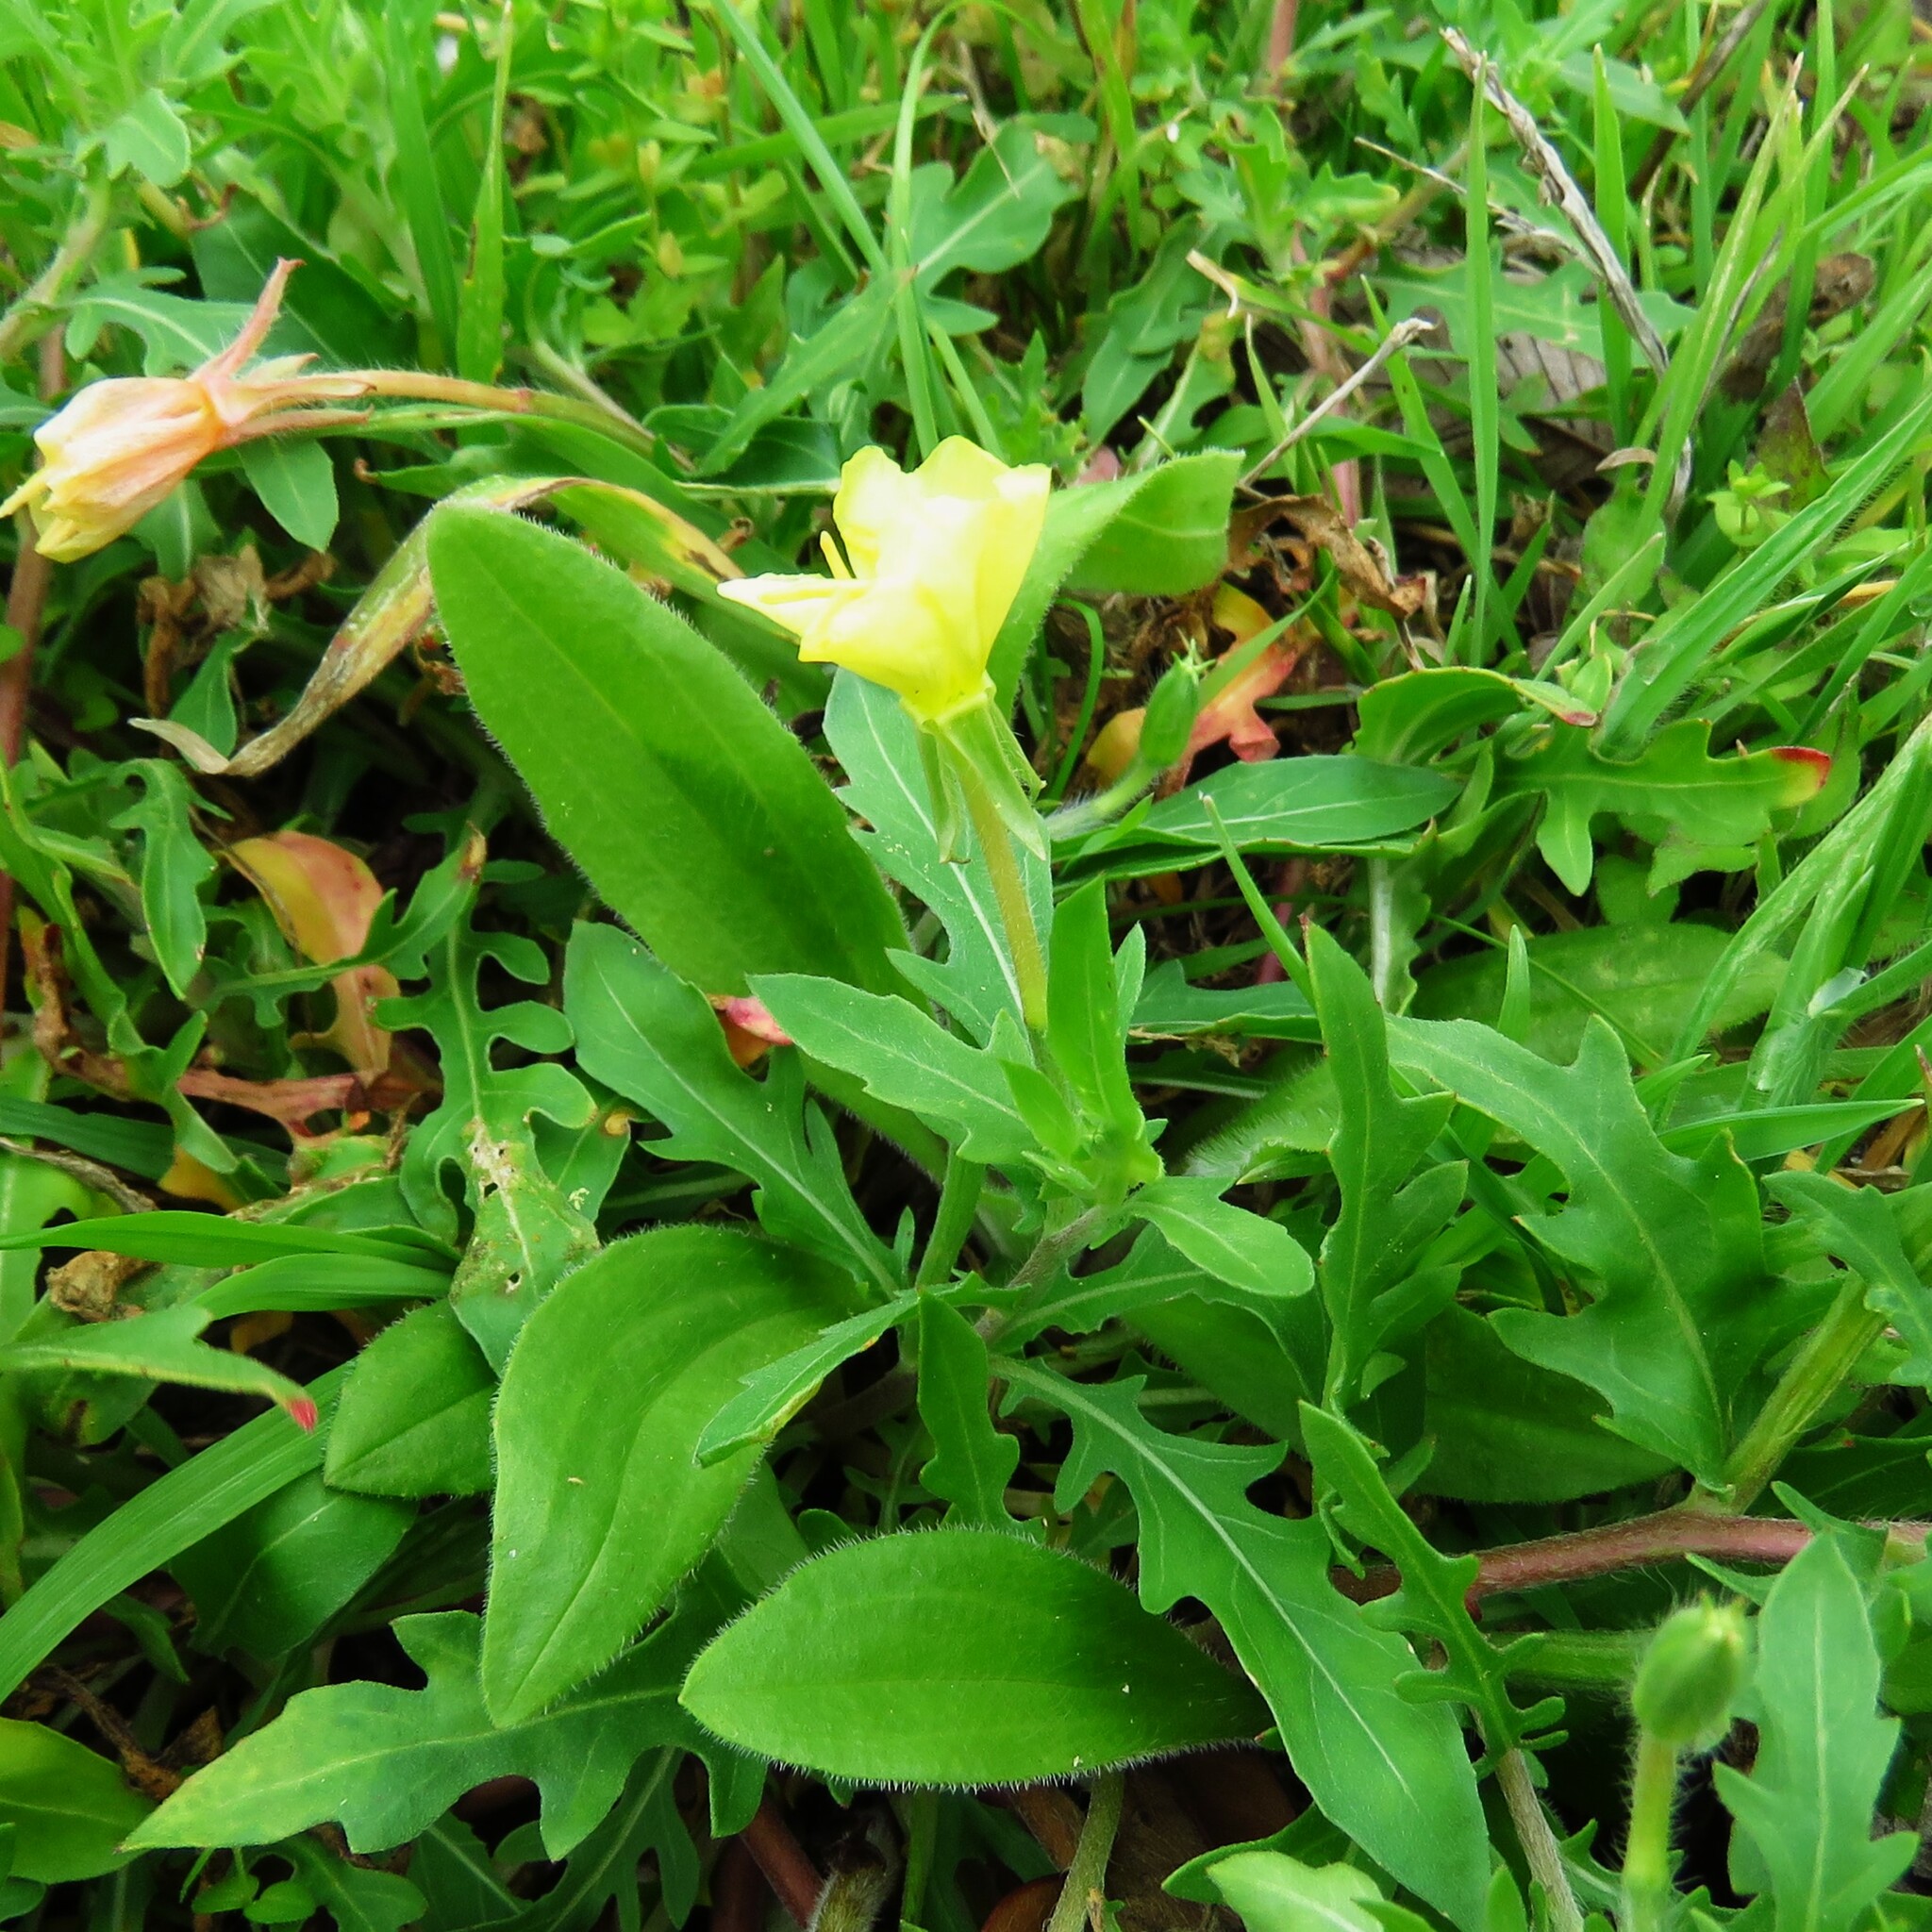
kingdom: Plantae
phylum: Tracheophyta
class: Magnoliopsida
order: Myrtales
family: Onagraceae
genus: Oenothera
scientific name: Oenothera laciniata
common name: Cut-leaved evening-primrose
